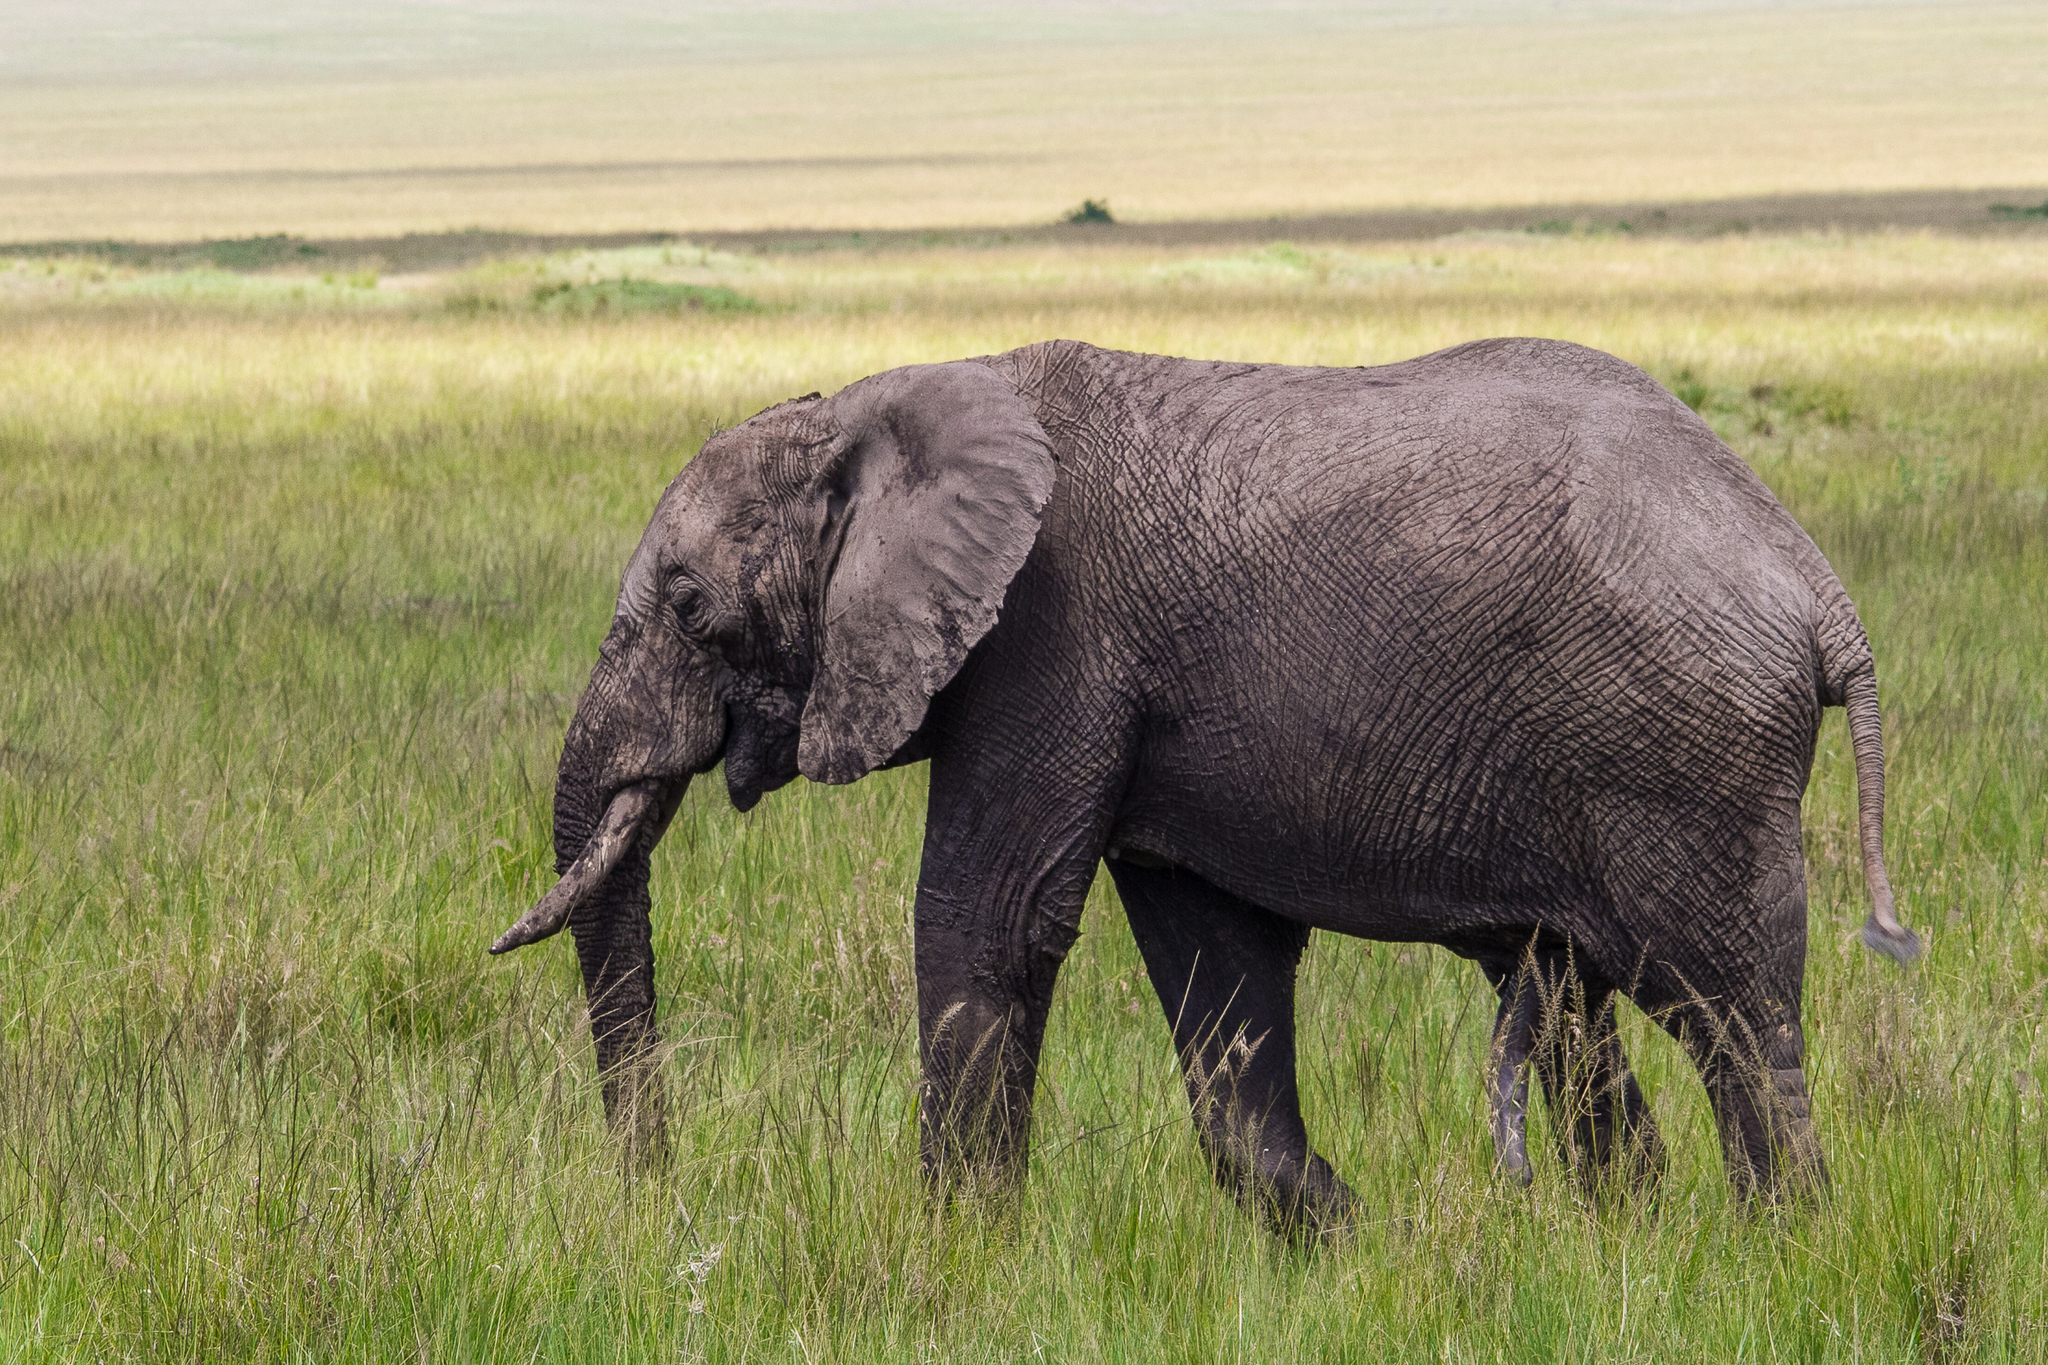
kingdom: Animalia
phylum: Chordata
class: Mammalia
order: Proboscidea
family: Elephantidae
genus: Loxodonta
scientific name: Loxodonta africana
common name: African elephant
